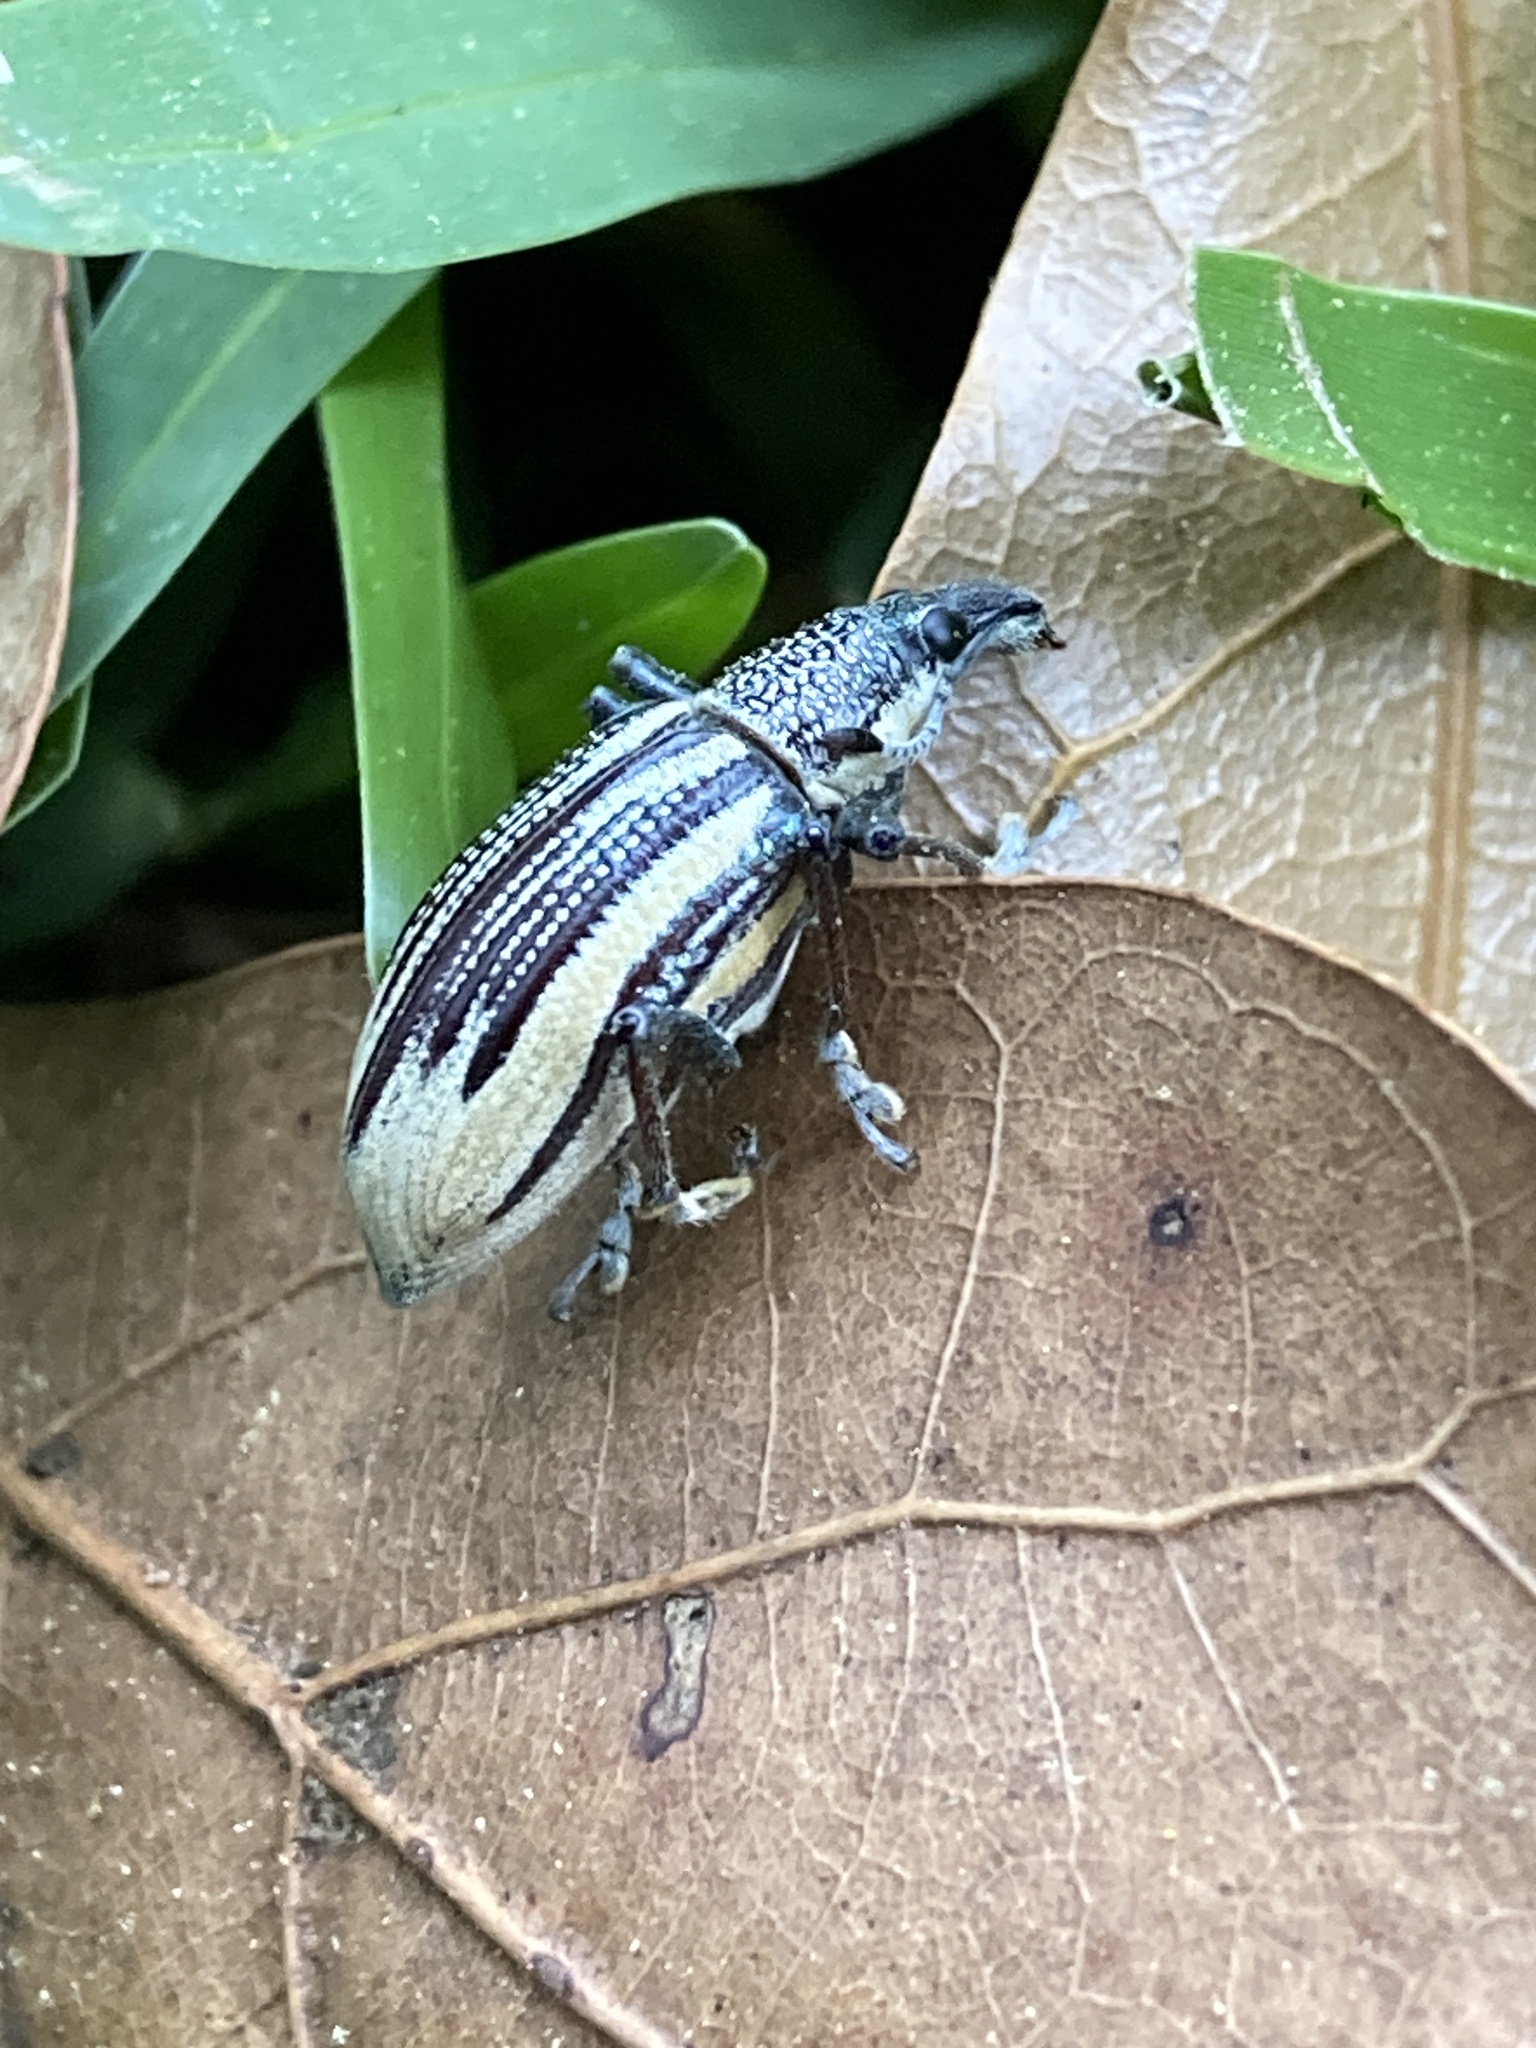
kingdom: Animalia
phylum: Arthropoda
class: Insecta
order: Coleoptera
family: Curculionidae
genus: Diaprepes
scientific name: Diaprepes abbreviatus
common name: Root weevil
